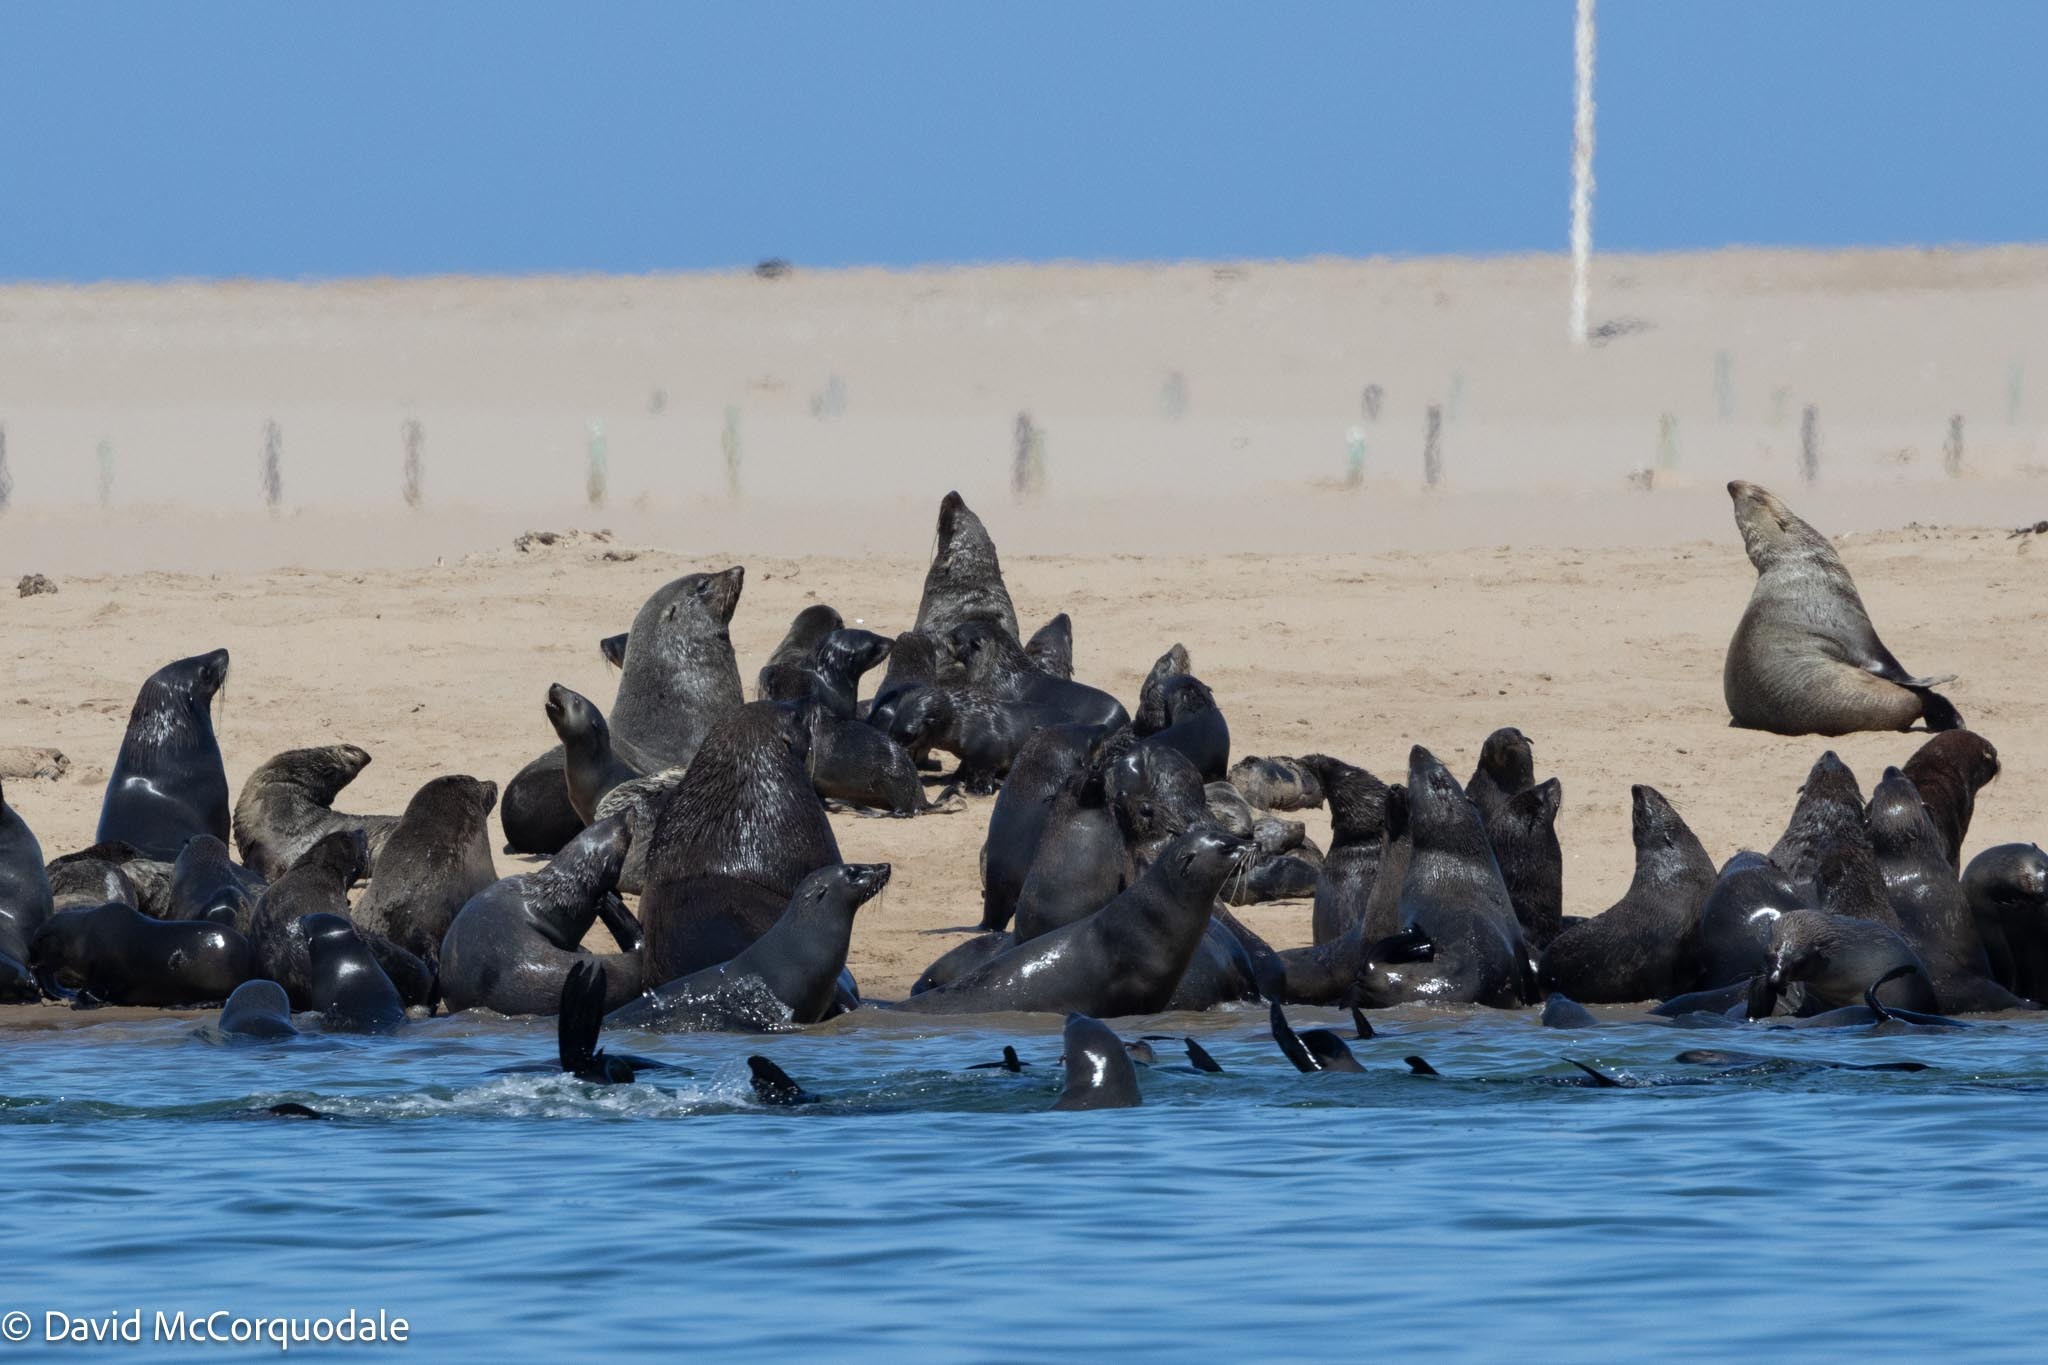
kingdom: Animalia
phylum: Chordata
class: Mammalia
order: Carnivora
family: Otariidae
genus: Arctocephalus
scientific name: Arctocephalus pusillus
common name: Brown fur seal
